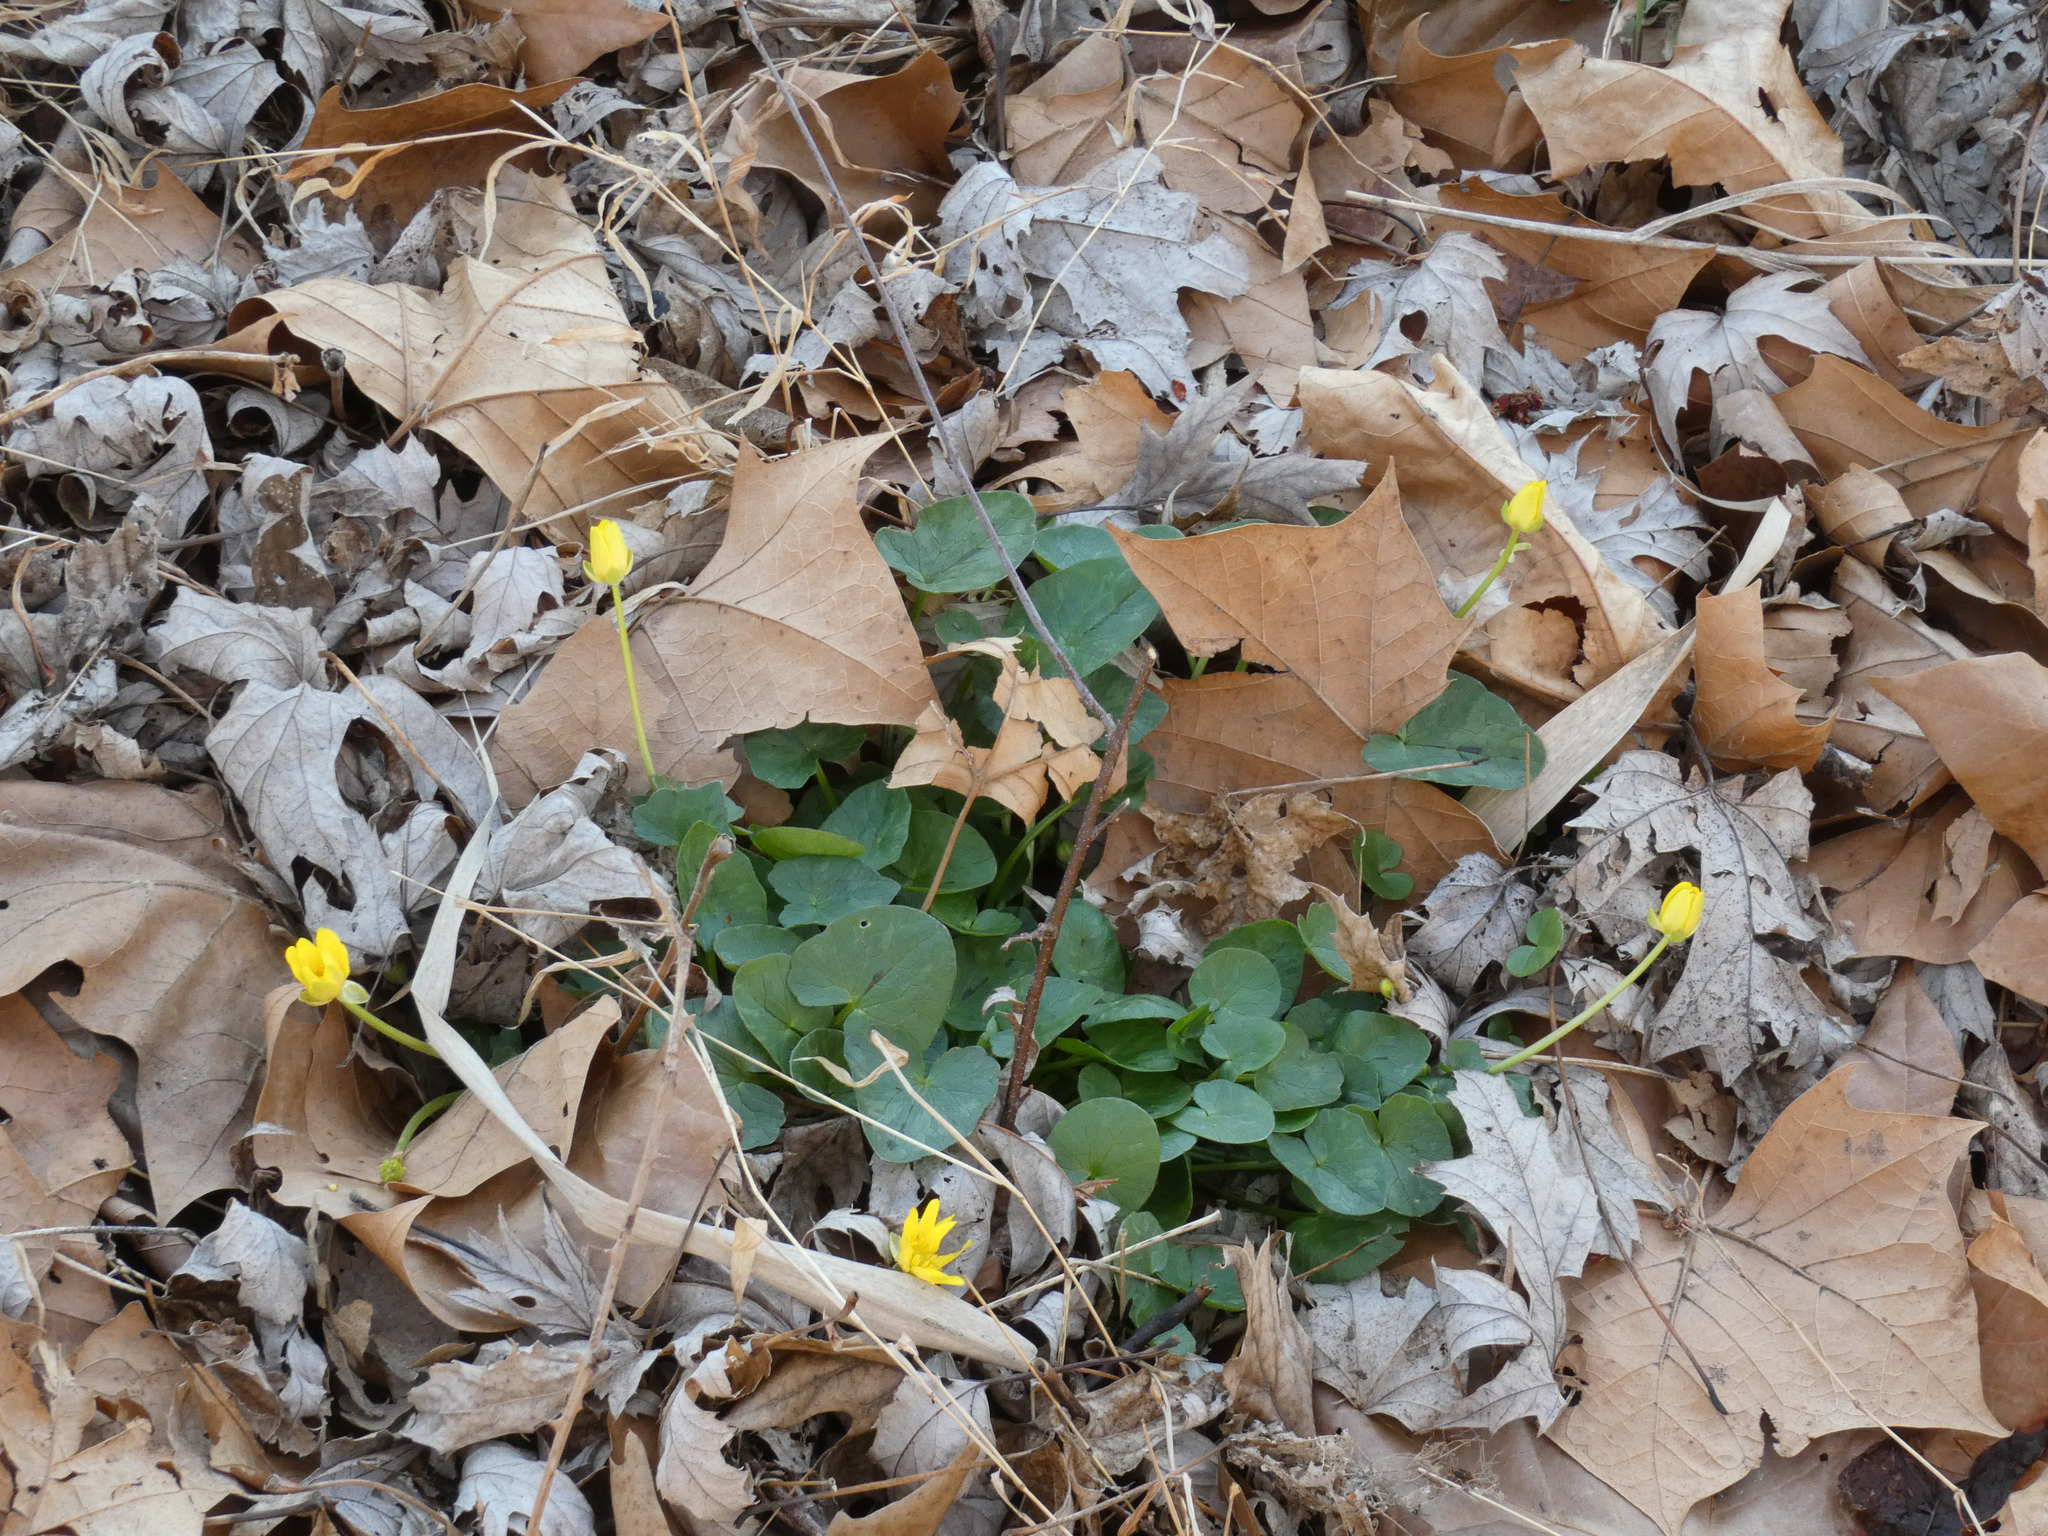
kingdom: Plantae
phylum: Tracheophyta
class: Magnoliopsida
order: Ranunculales
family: Ranunculaceae
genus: Ficaria
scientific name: Ficaria verna
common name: Lesser celandine
